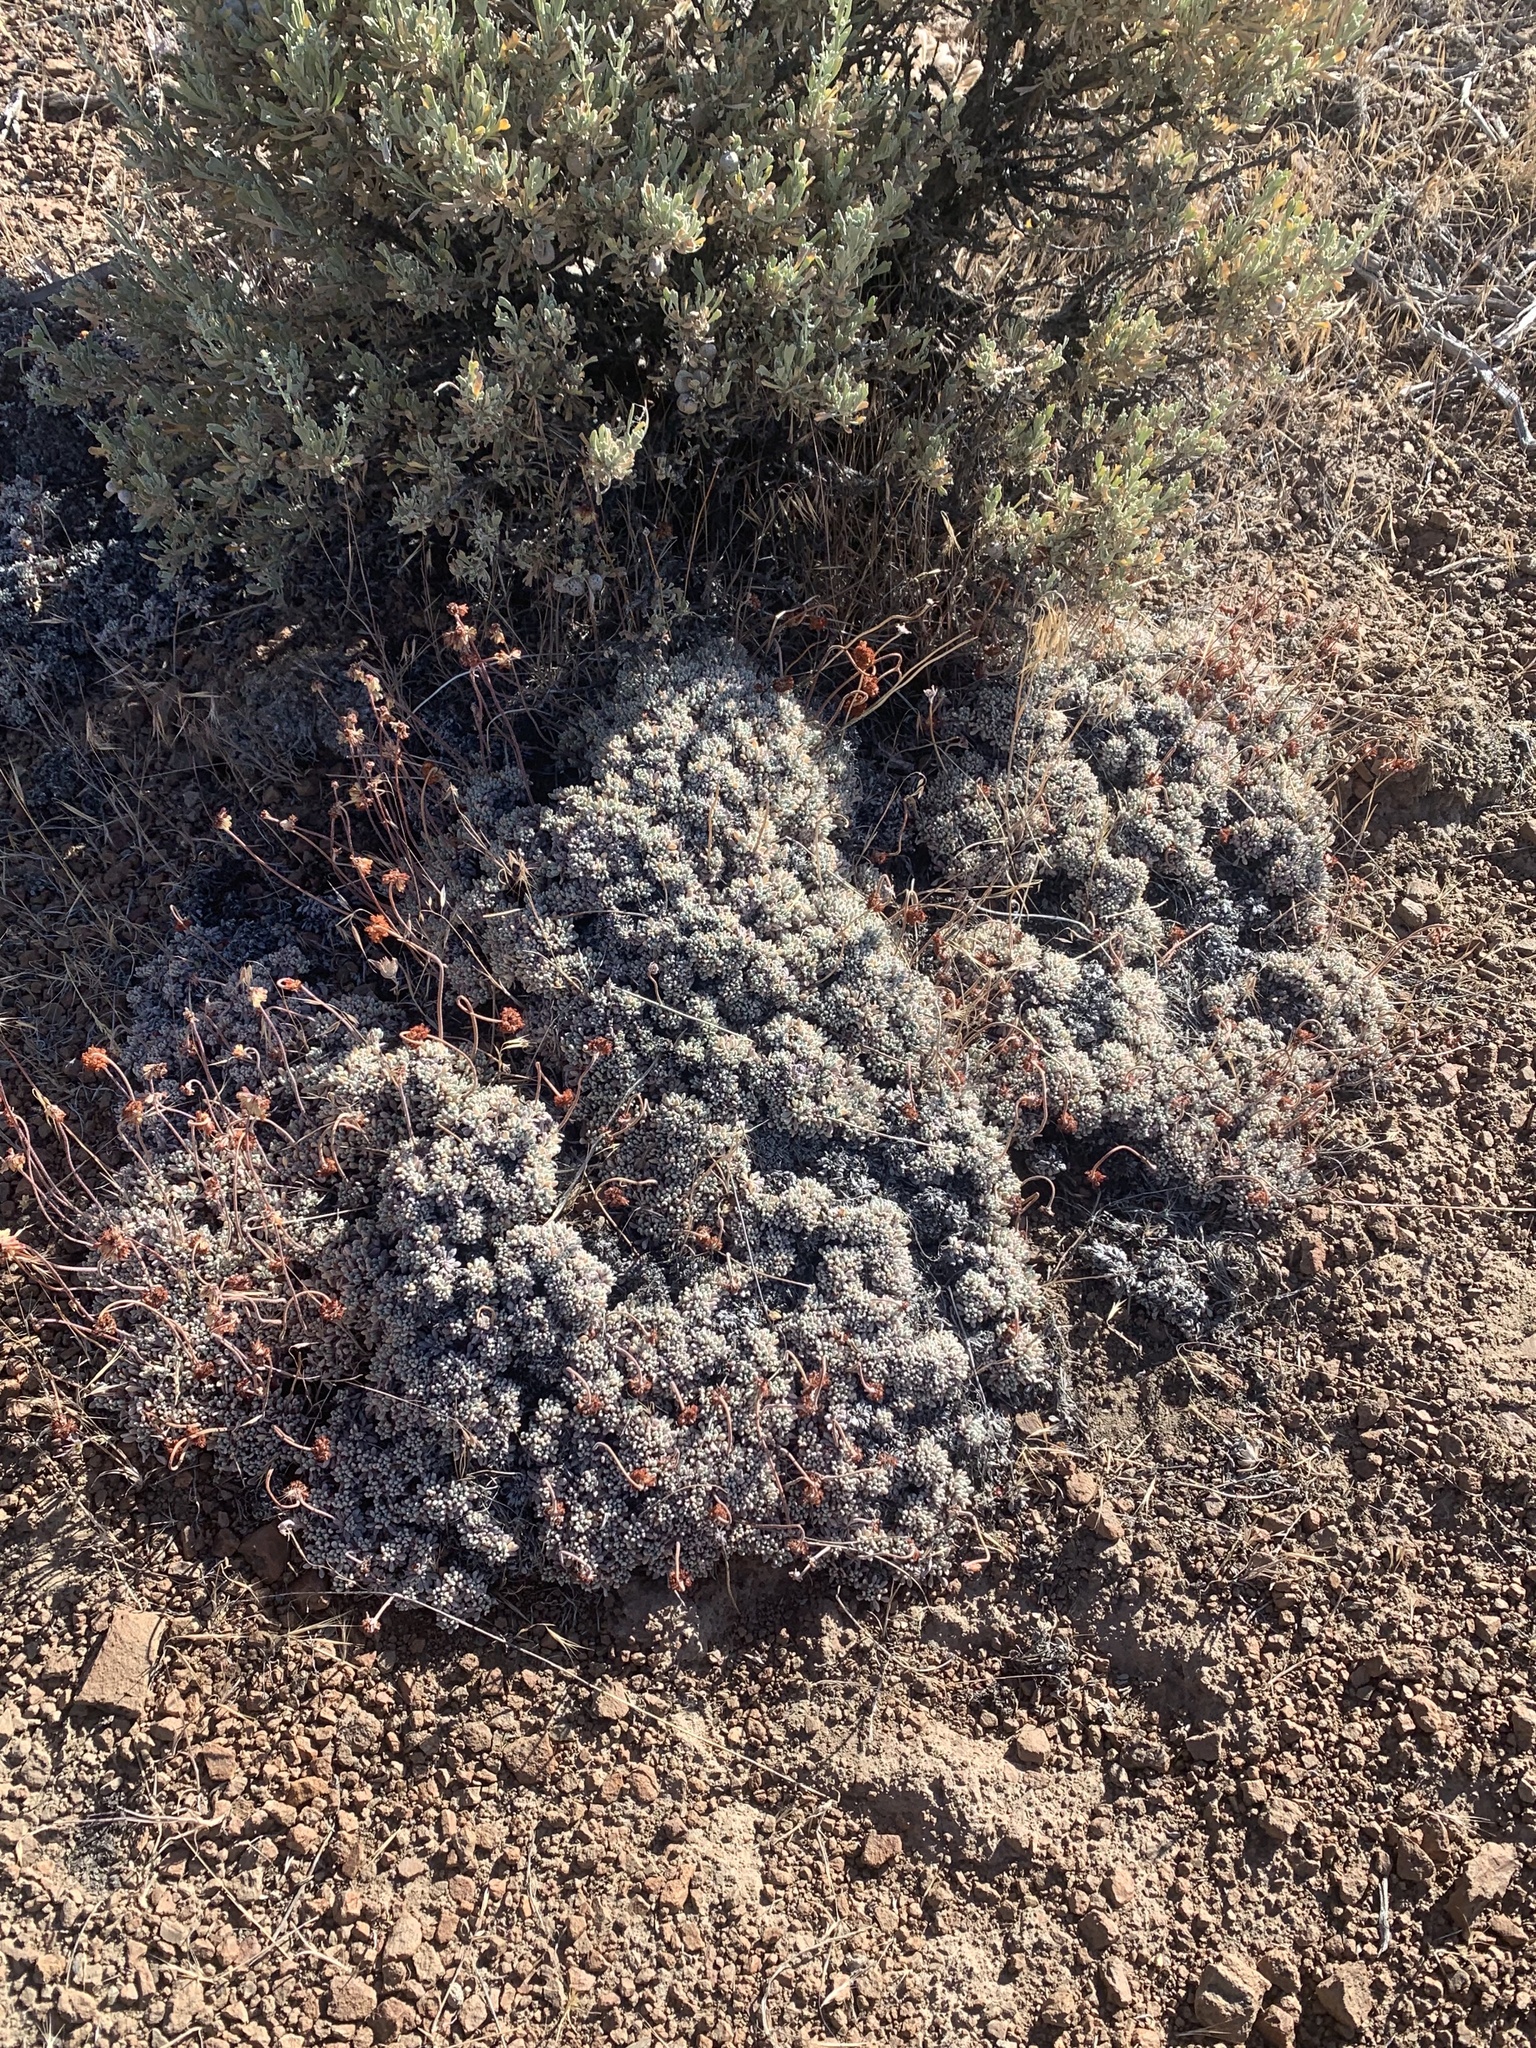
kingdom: Plantae
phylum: Tracheophyta
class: Magnoliopsida
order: Caryophyllales
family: Polygonaceae
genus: Eriogonum
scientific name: Eriogonum caespitosum
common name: Matted wild buckwheat
